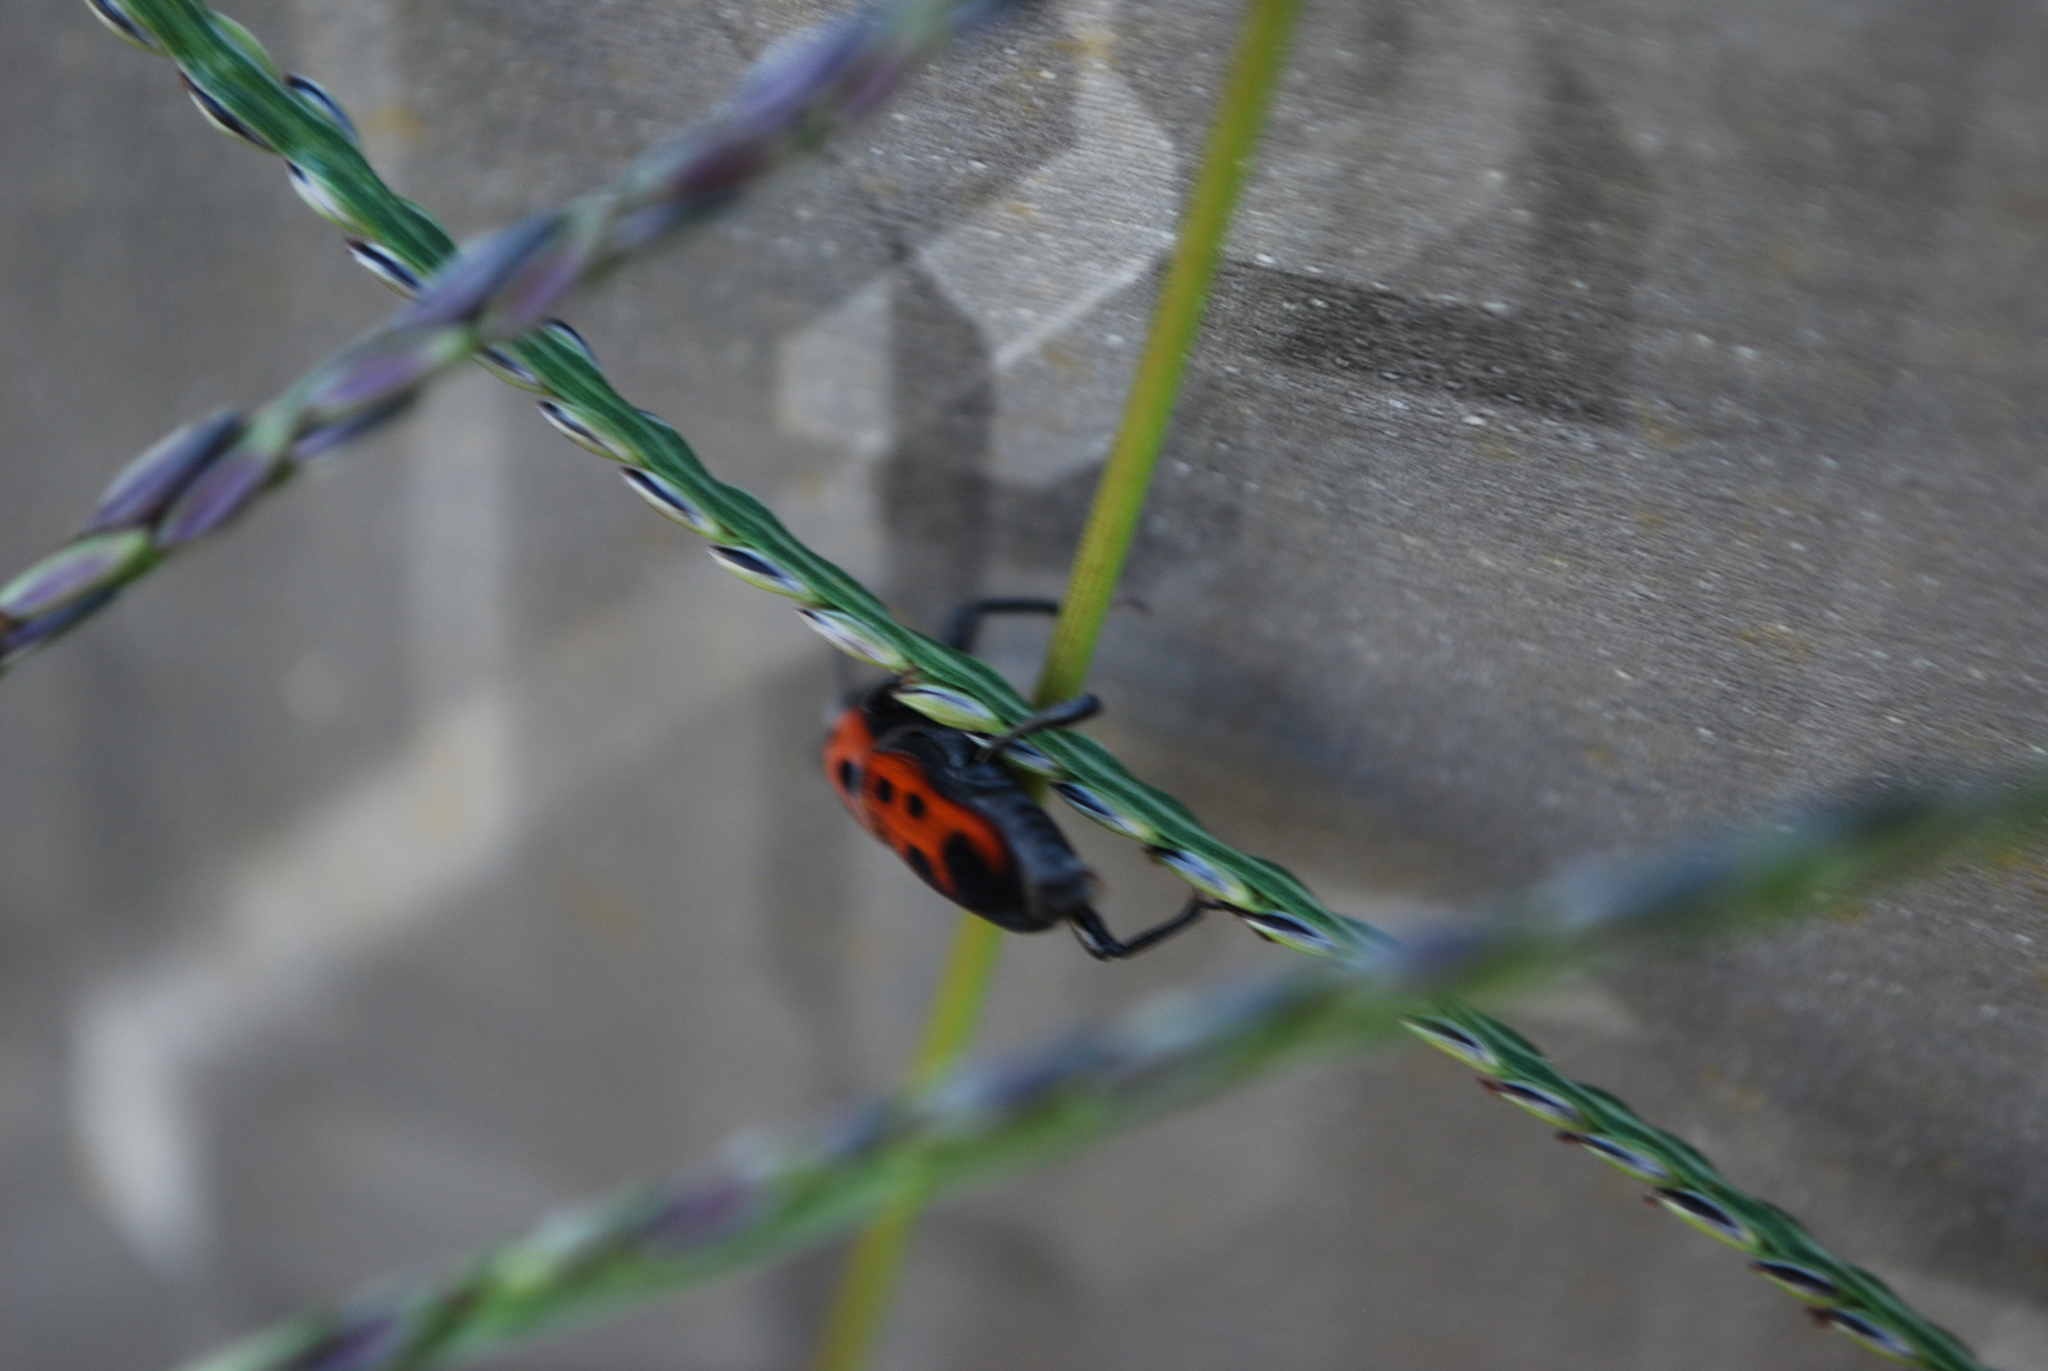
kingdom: Animalia
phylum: Arthropoda
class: Insecta
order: Coleoptera
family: Dryophthoridae
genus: Rhodobaenus
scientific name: Rhodobaenus quinquepunctatus
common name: Cocklebur weevil
